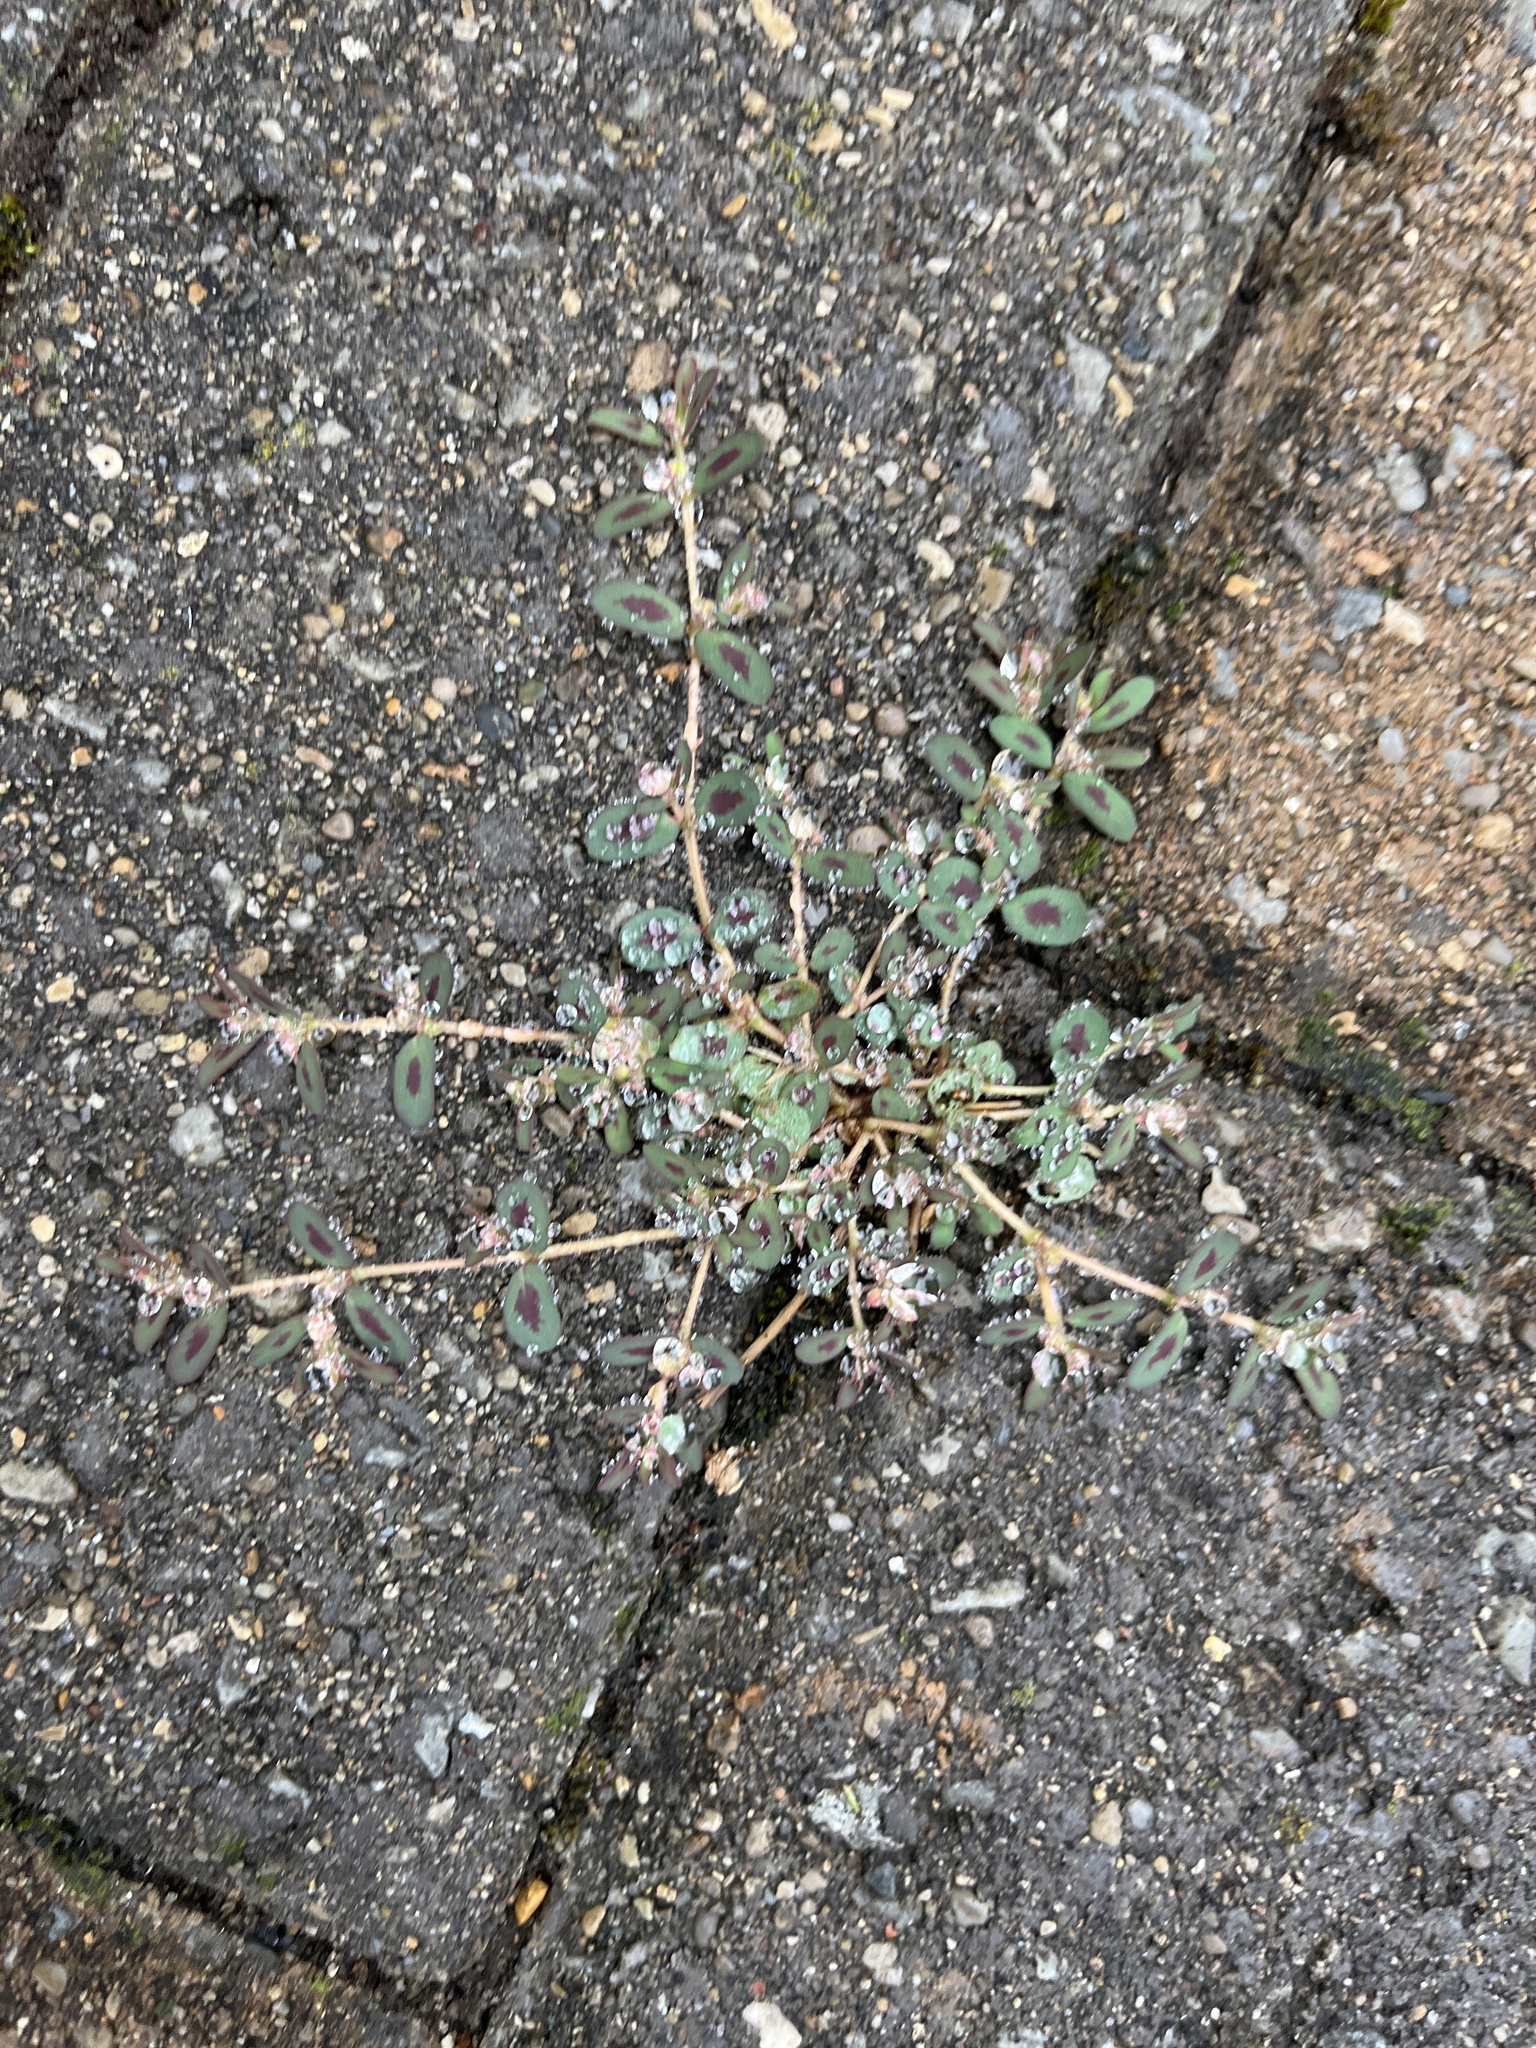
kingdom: Plantae
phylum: Tracheophyta
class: Magnoliopsida
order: Malpighiales
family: Euphorbiaceae
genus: Euphorbia
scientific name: Euphorbia maculata
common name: Spotted spurge
